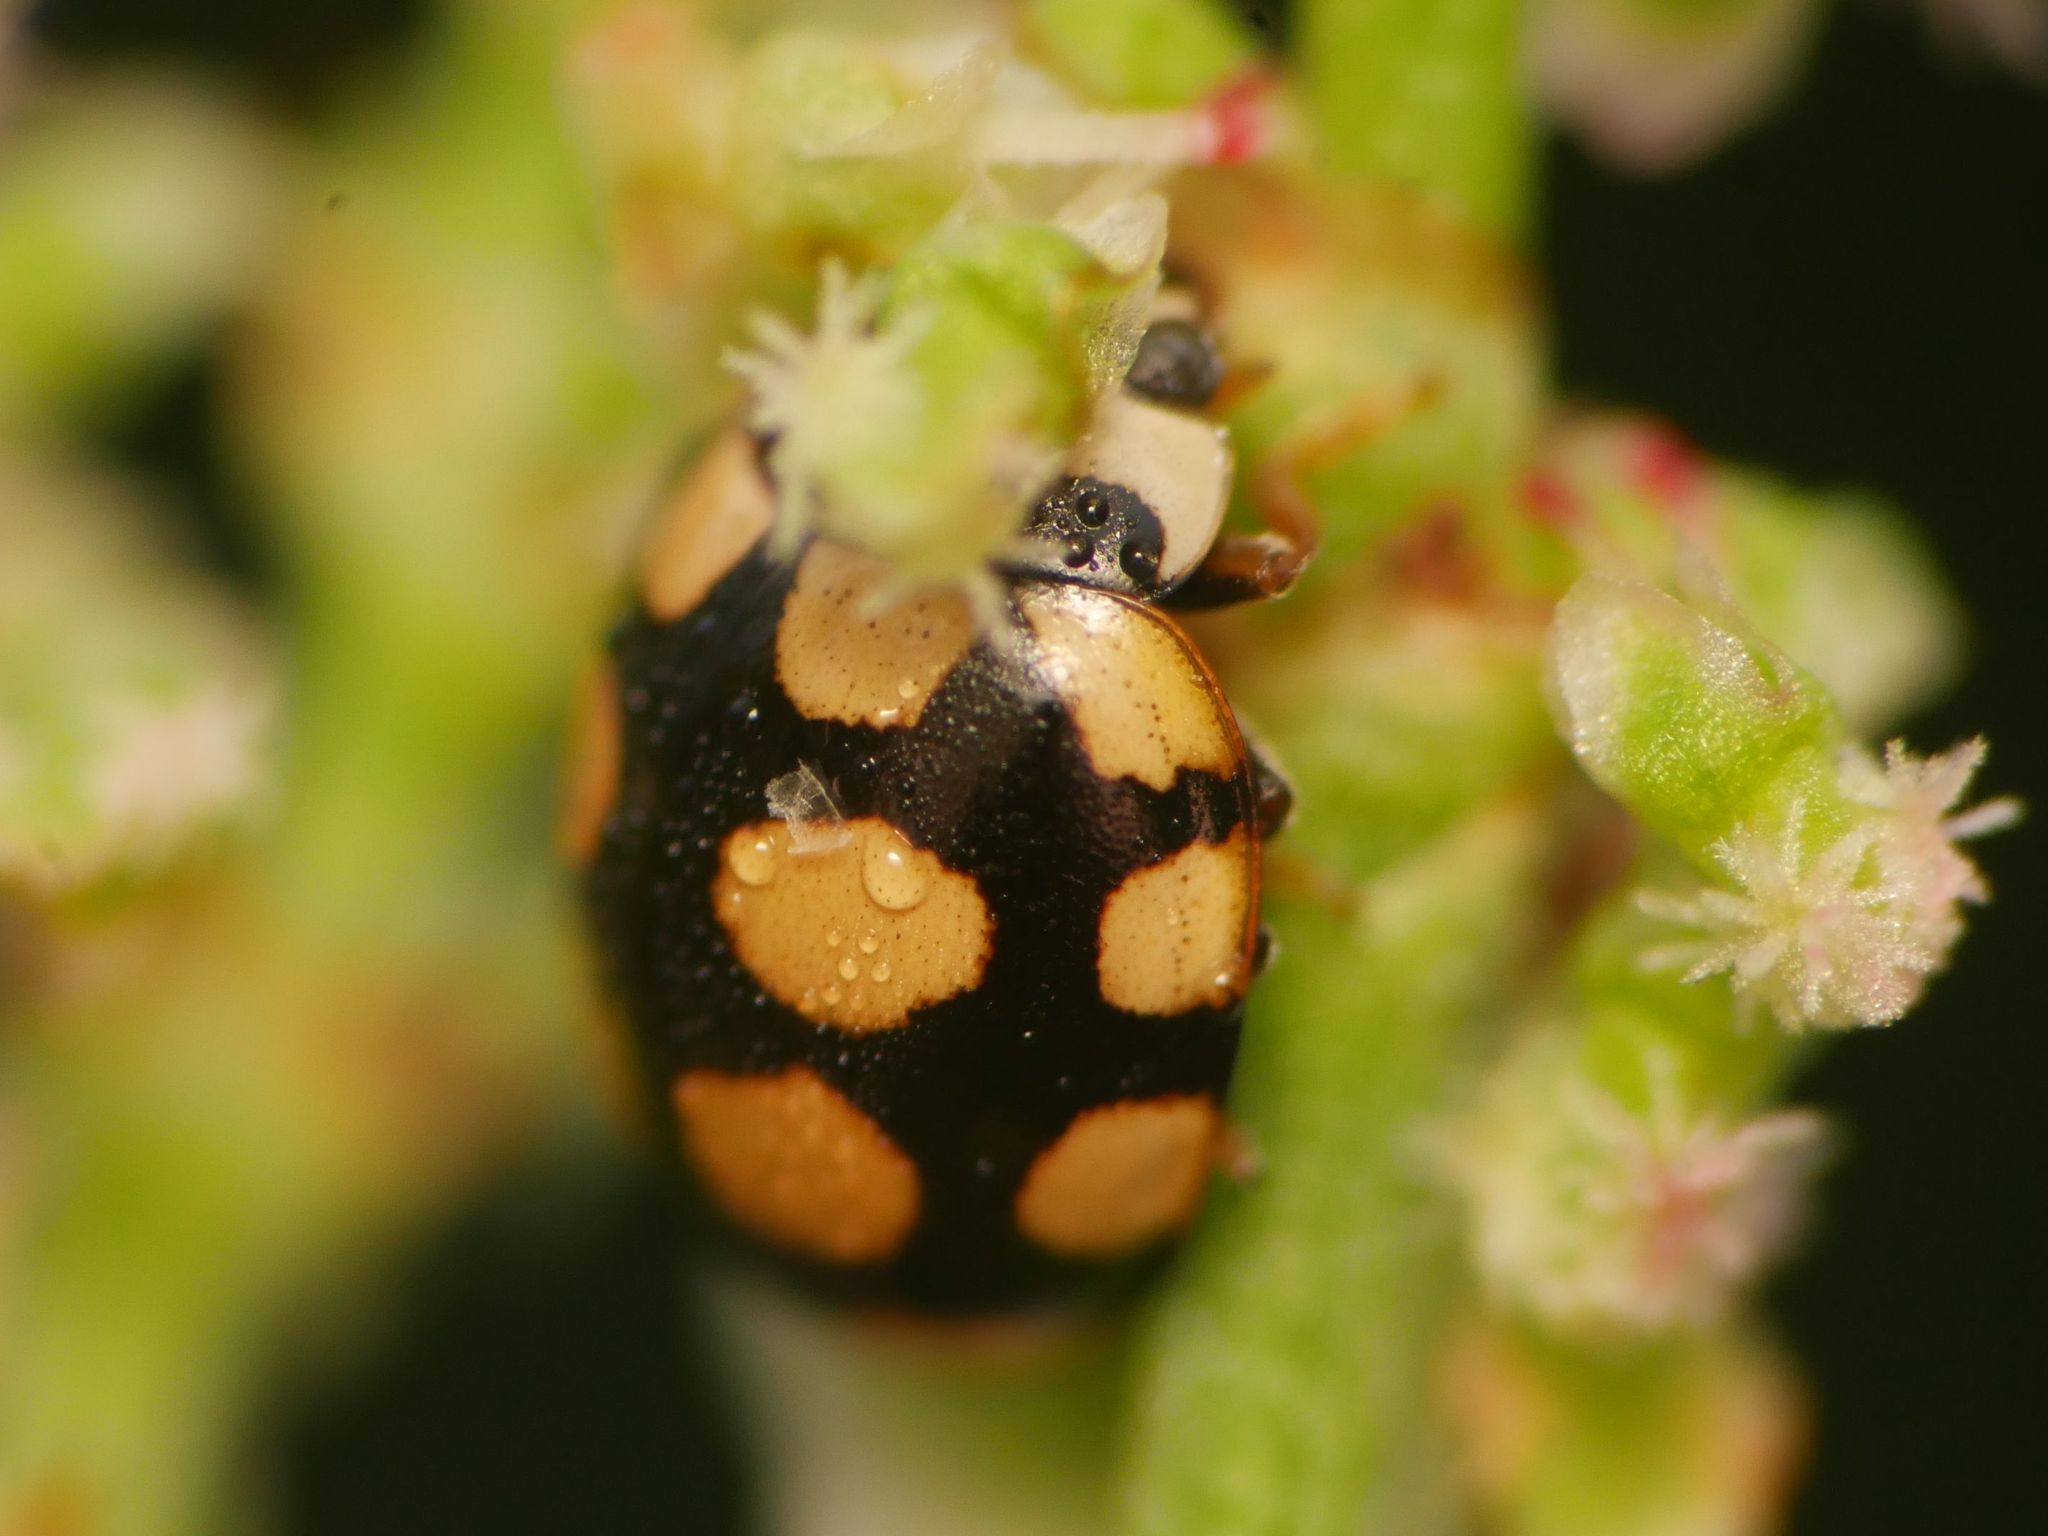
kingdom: Animalia
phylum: Arthropoda
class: Insecta
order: Coleoptera
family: Coccinellidae
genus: Coccinula
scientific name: Coccinula quatuordecimpustulata
